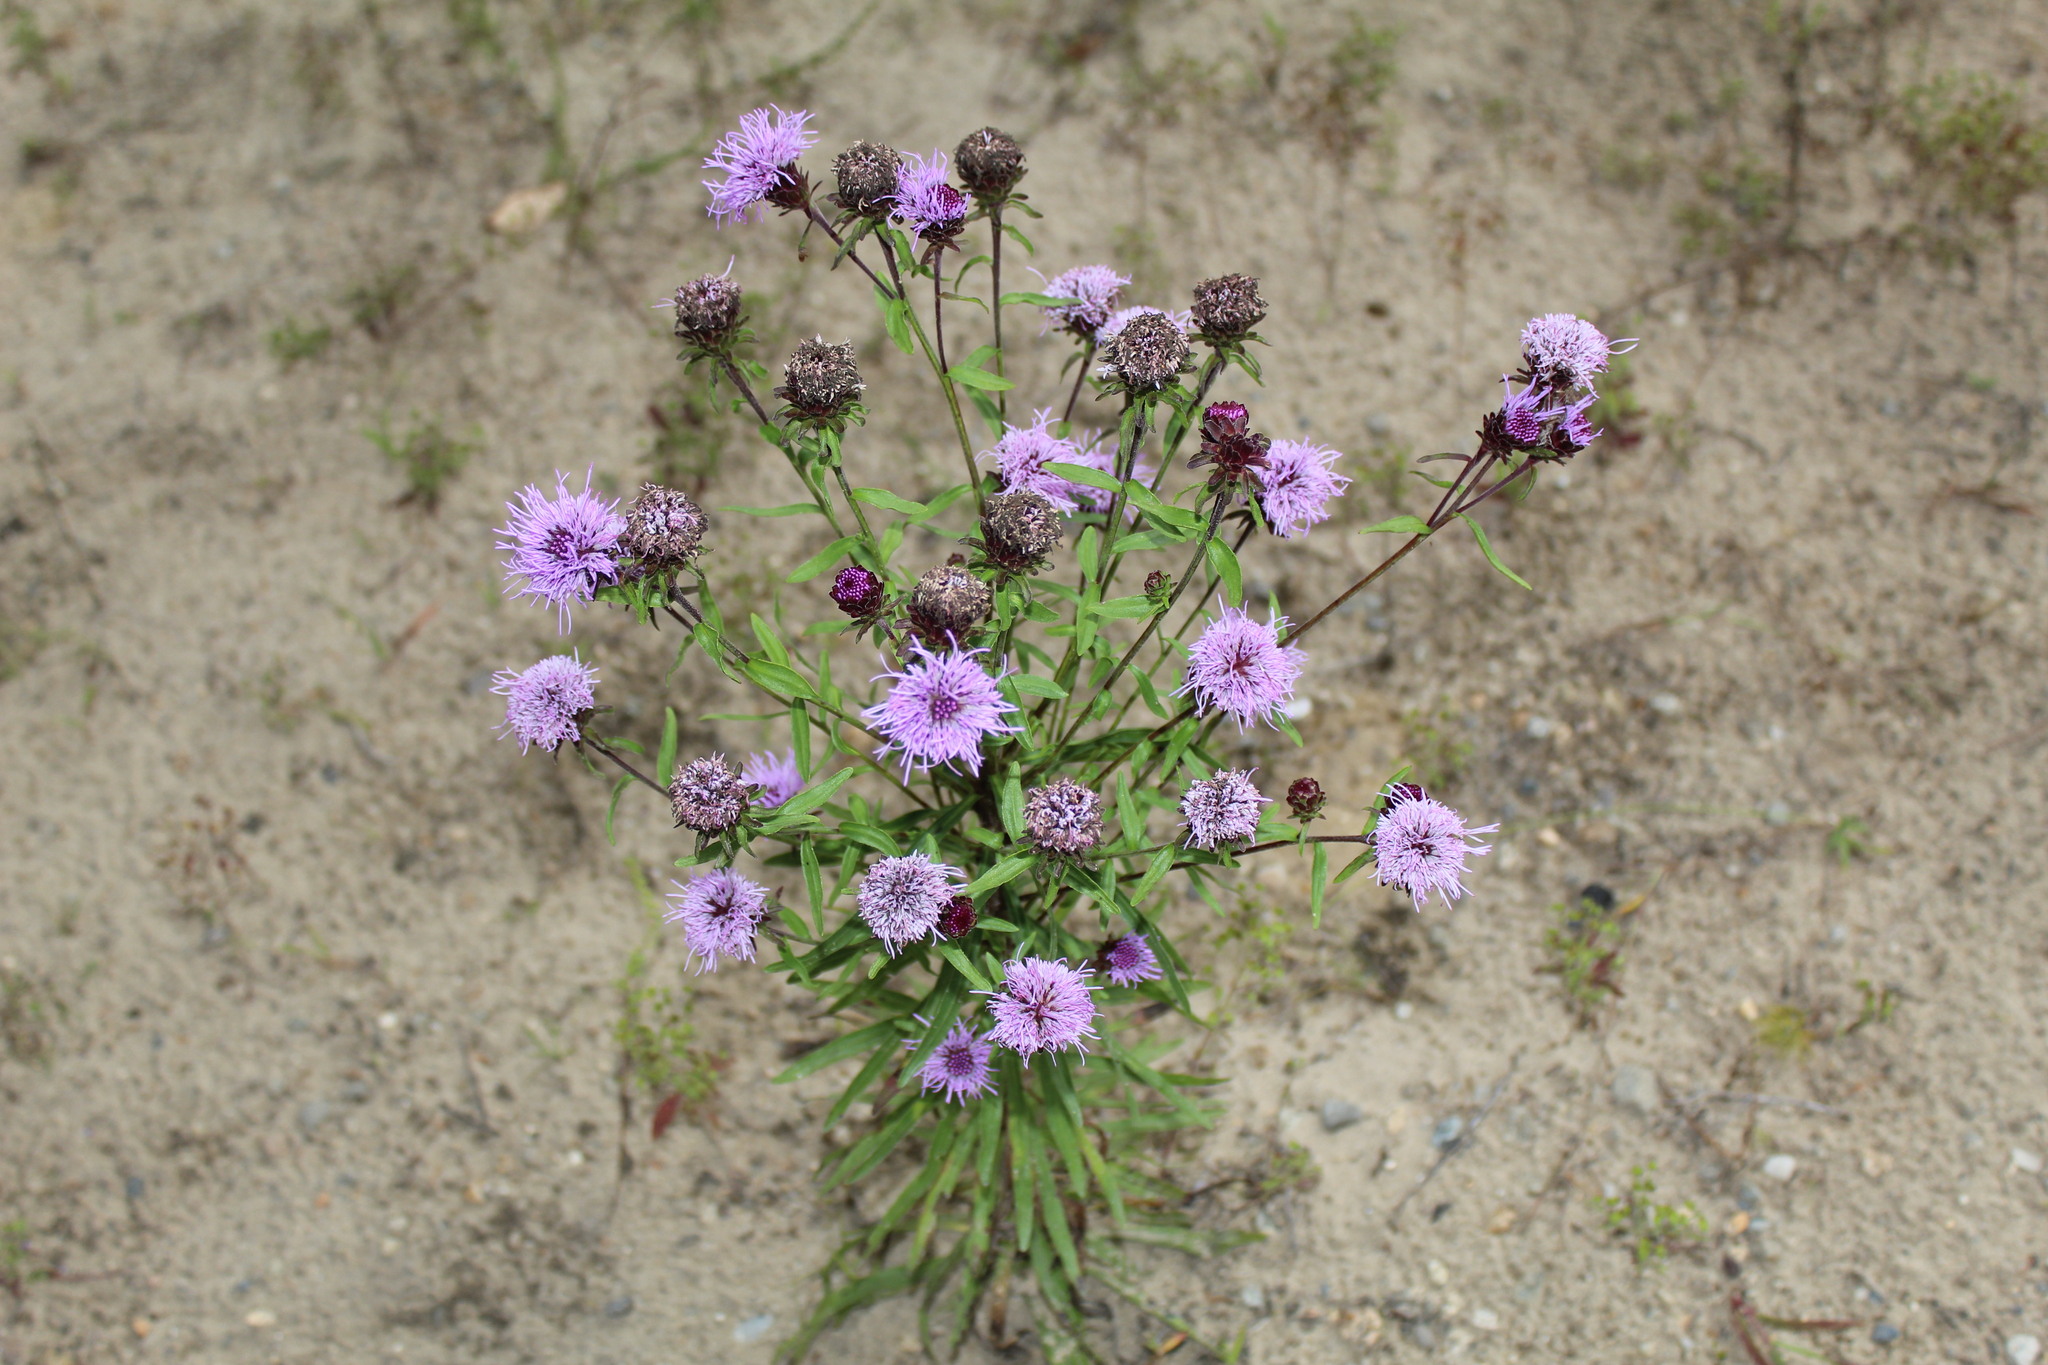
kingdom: Plantae
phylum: Tracheophyta
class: Magnoliopsida
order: Asterales
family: Asteraceae
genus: Liatris
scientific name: Liatris scariosa
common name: Northern gayfeather
